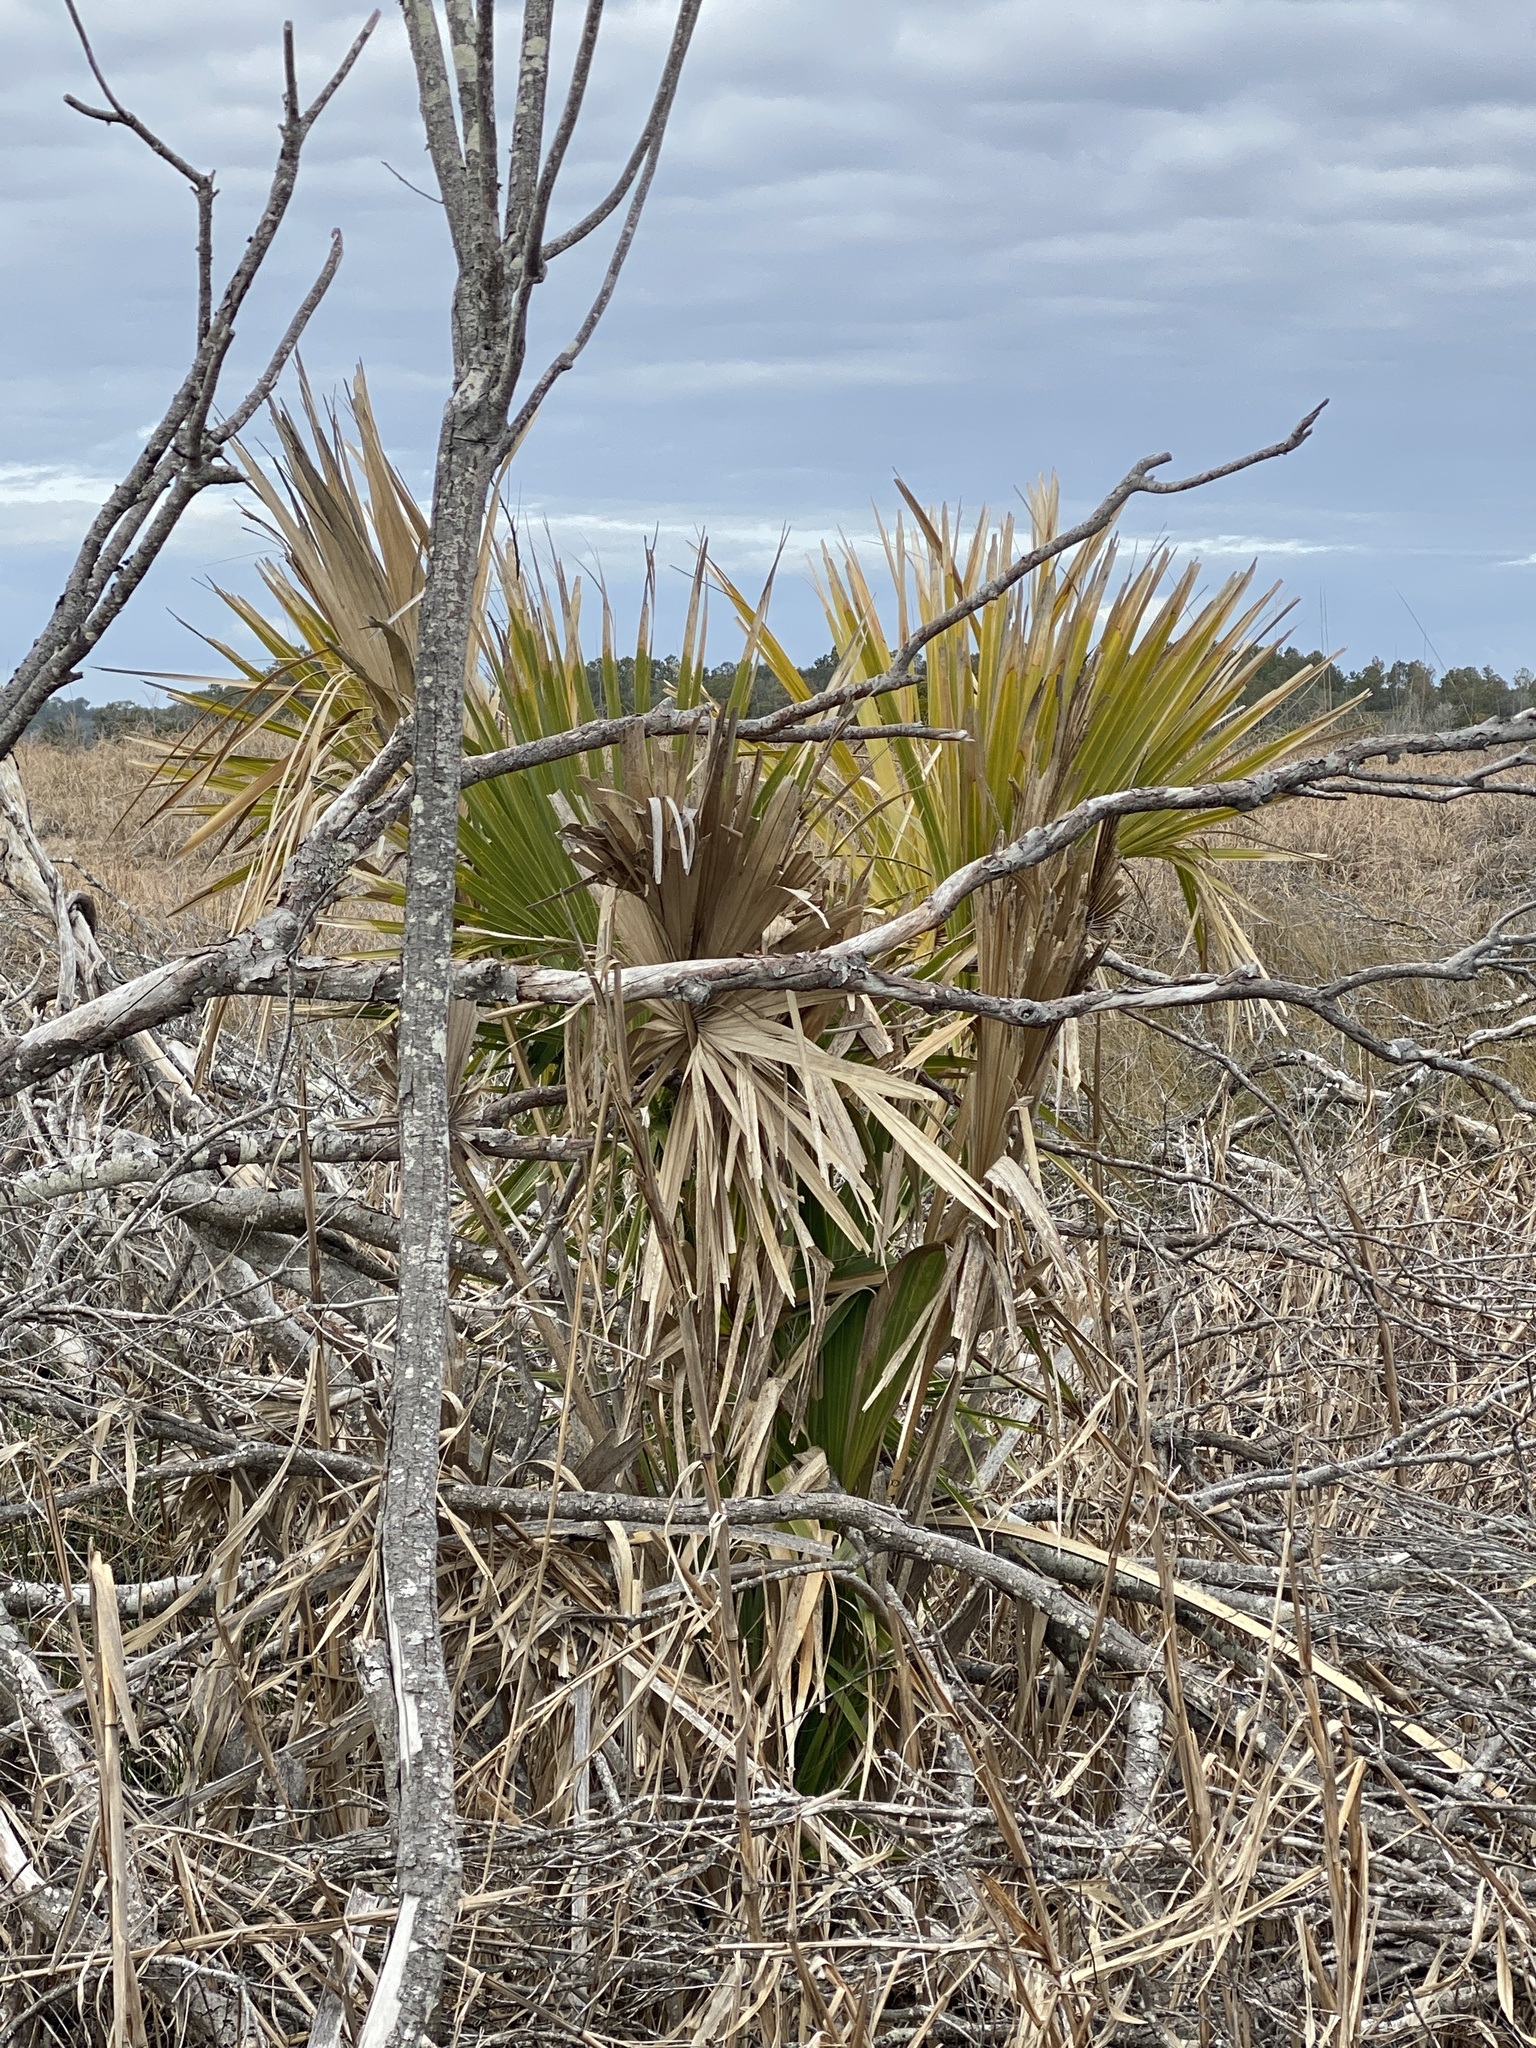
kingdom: Plantae
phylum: Tracheophyta
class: Liliopsida
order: Arecales
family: Arecaceae
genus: Sabal
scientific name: Sabal palmetto
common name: Blue palmetto
